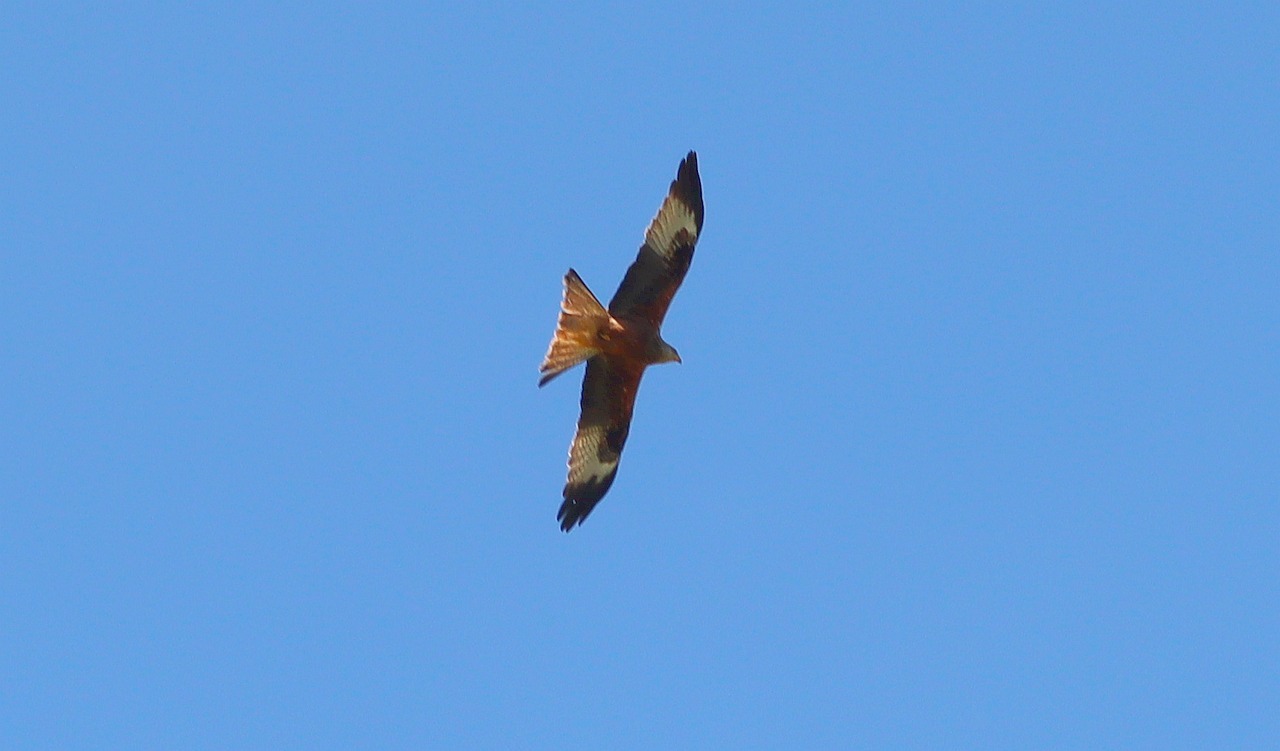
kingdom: Animalia
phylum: Chordata
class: Aves
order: Accipitriformes
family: Accipitridae
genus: Milvus
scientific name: Milvus milvus
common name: Red kite
